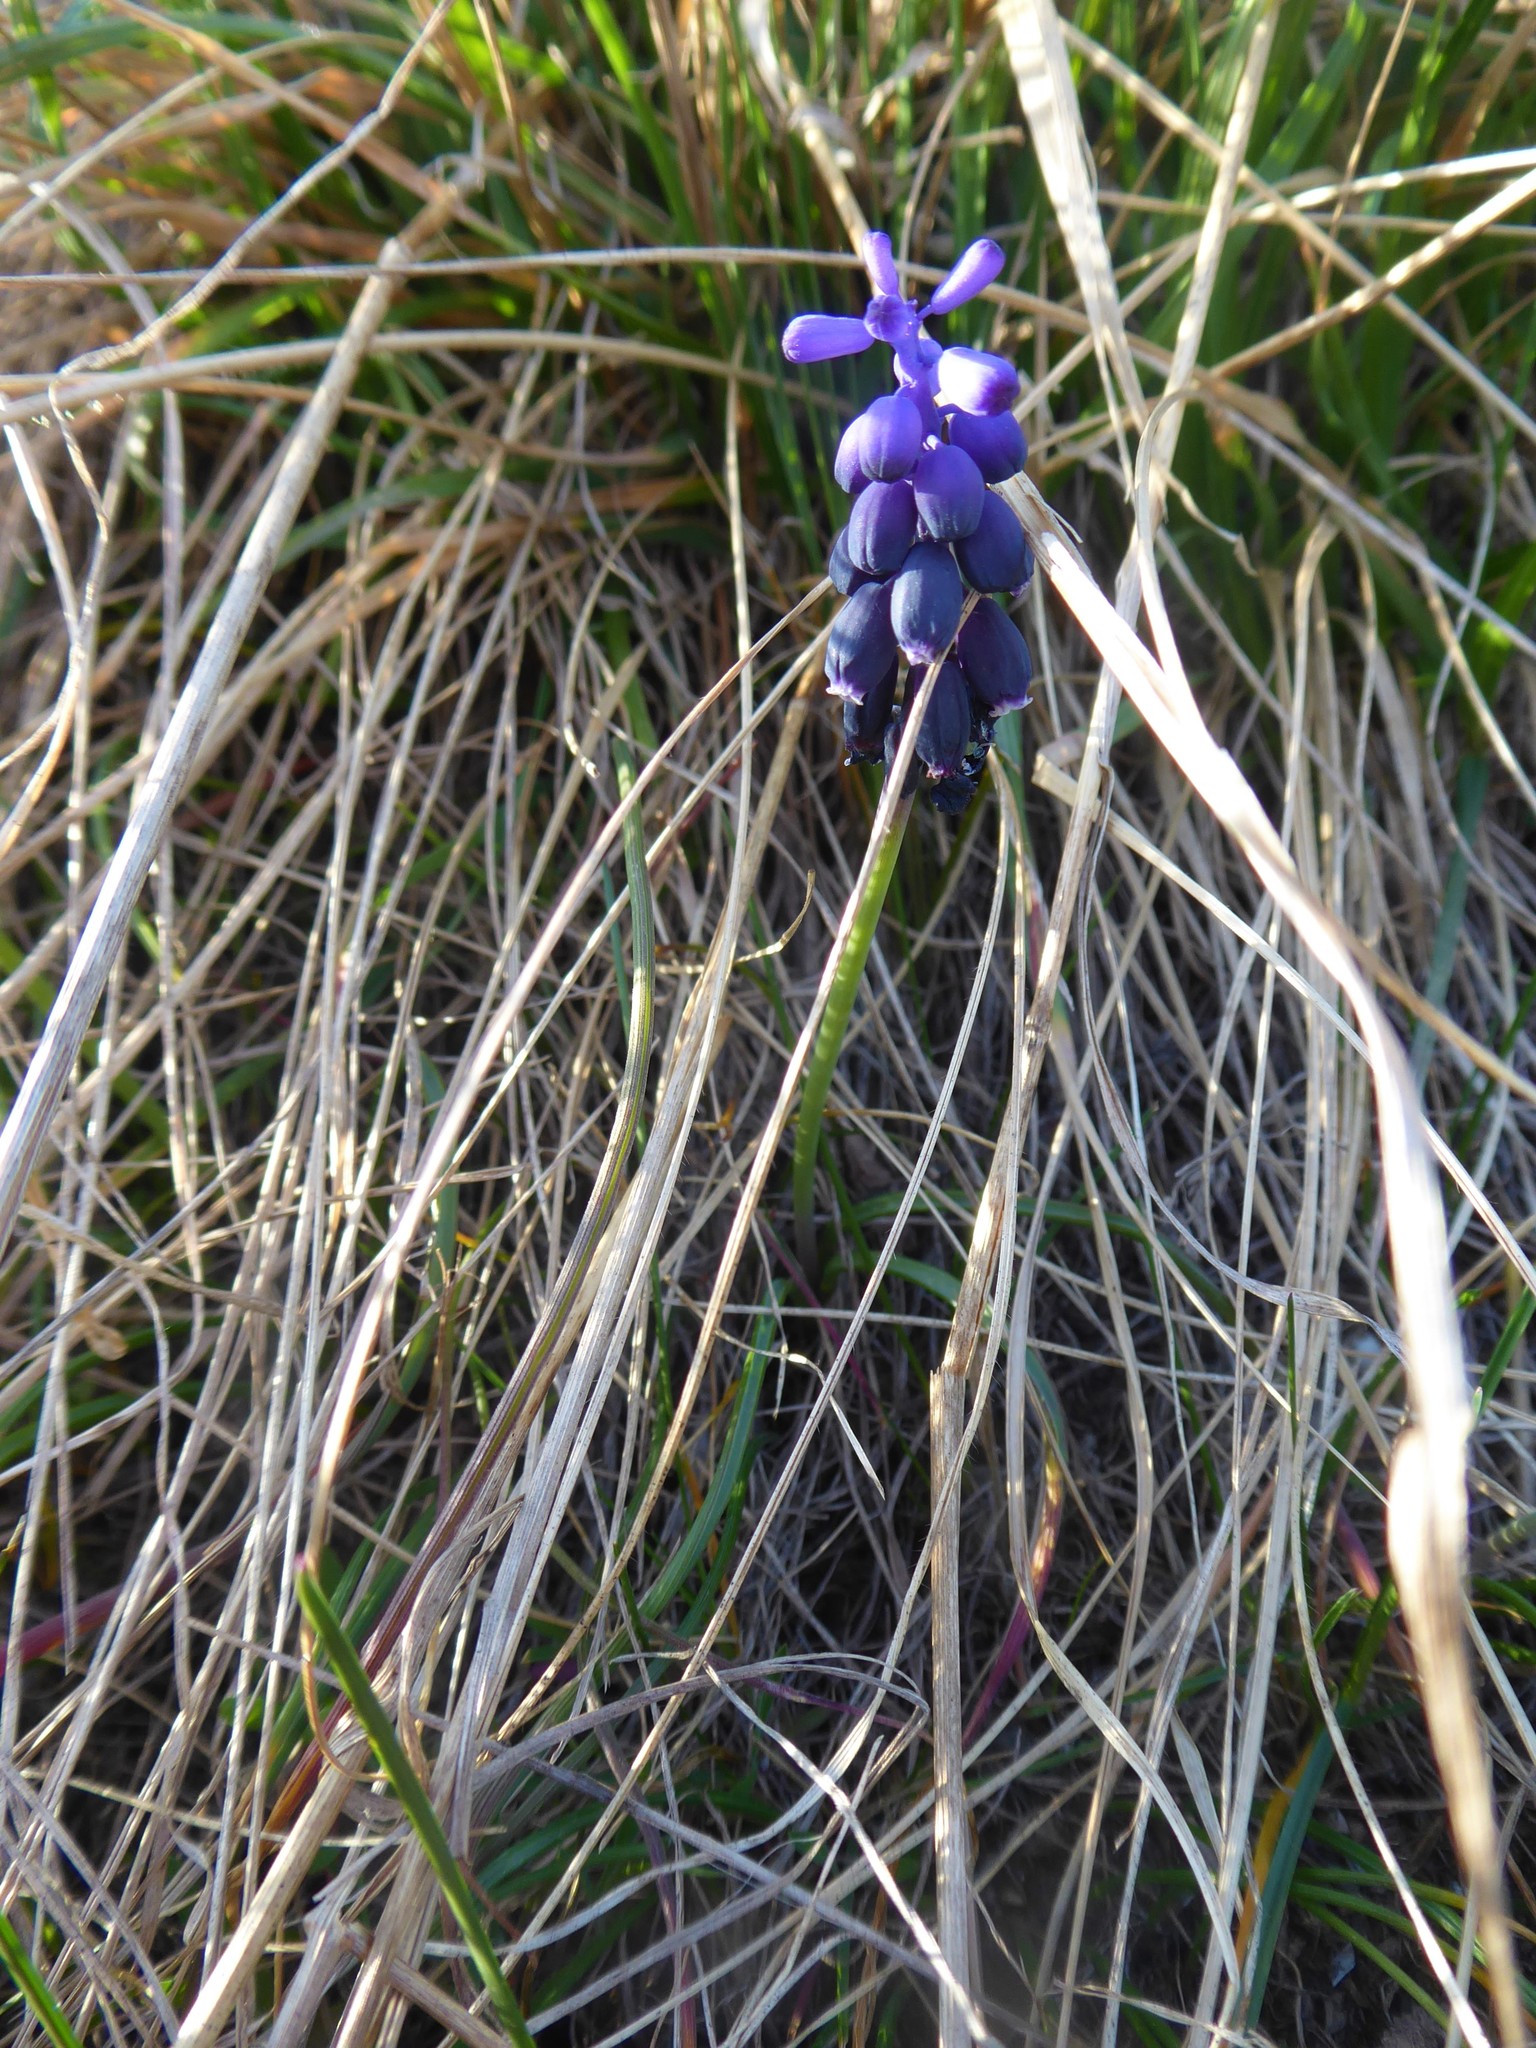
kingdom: Plantae
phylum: Tracheophyta
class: Liliopsida
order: Asparagales
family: Asparagaceae
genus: Muscari
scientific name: Muscari neglectum
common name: Grape-hyacinth
